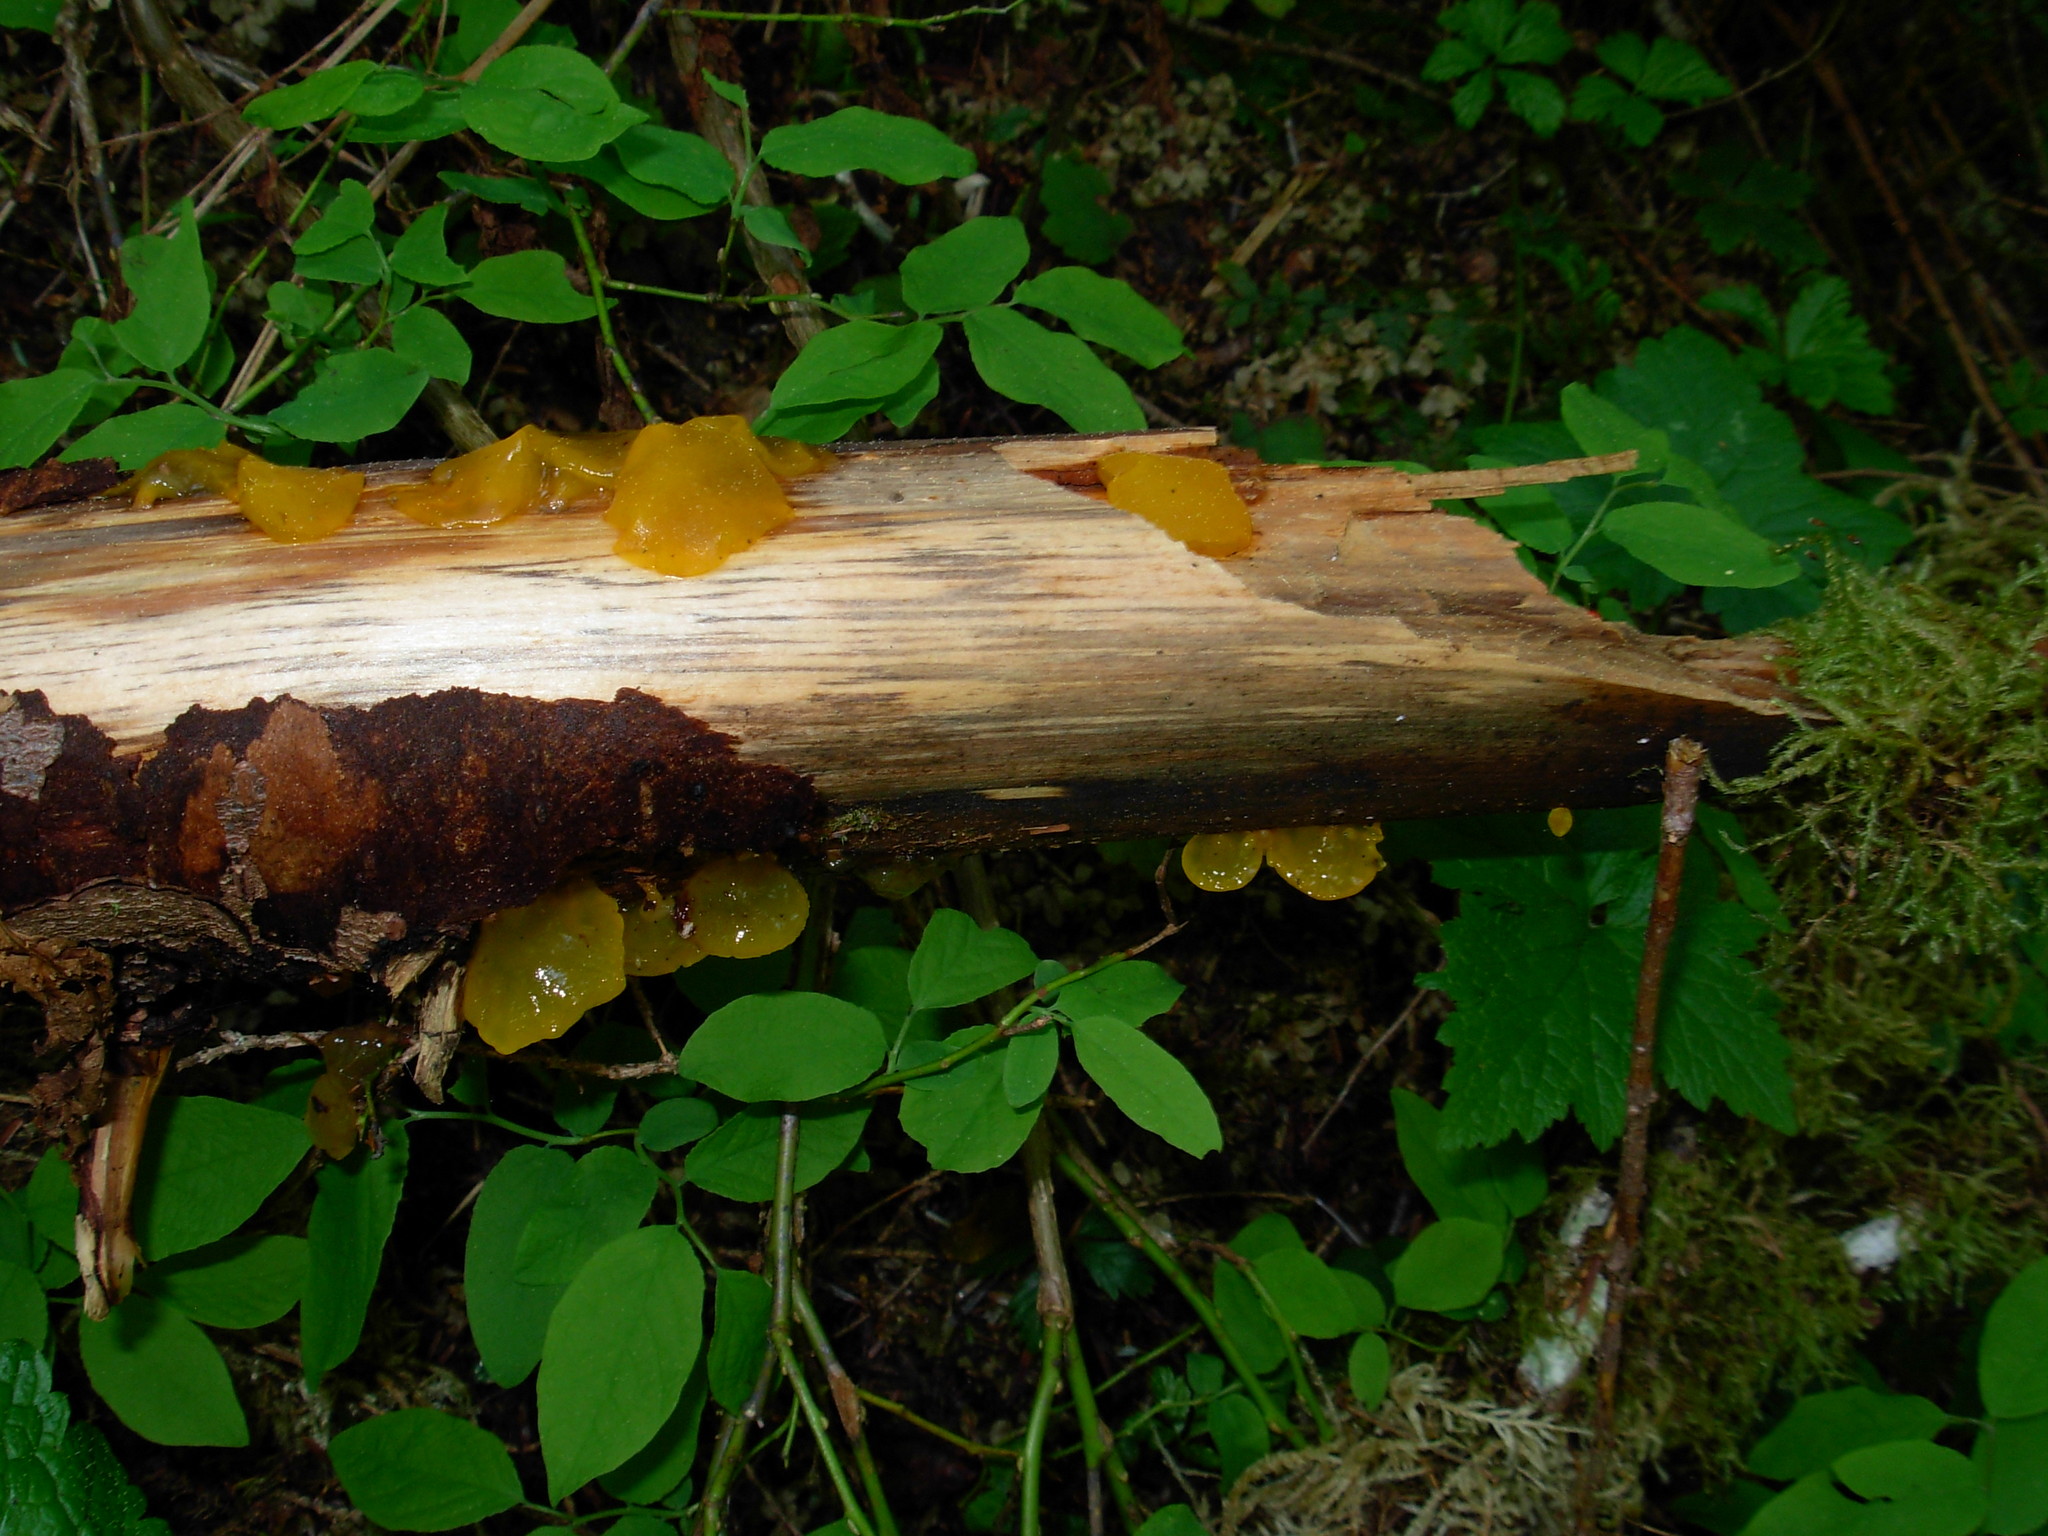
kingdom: Fungi
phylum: Basidiomycota
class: Dacrymycetes
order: Dacrymycetales
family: Dacrymycetaceae
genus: Guepiniopsis
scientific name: Guepiniopsis alpina
